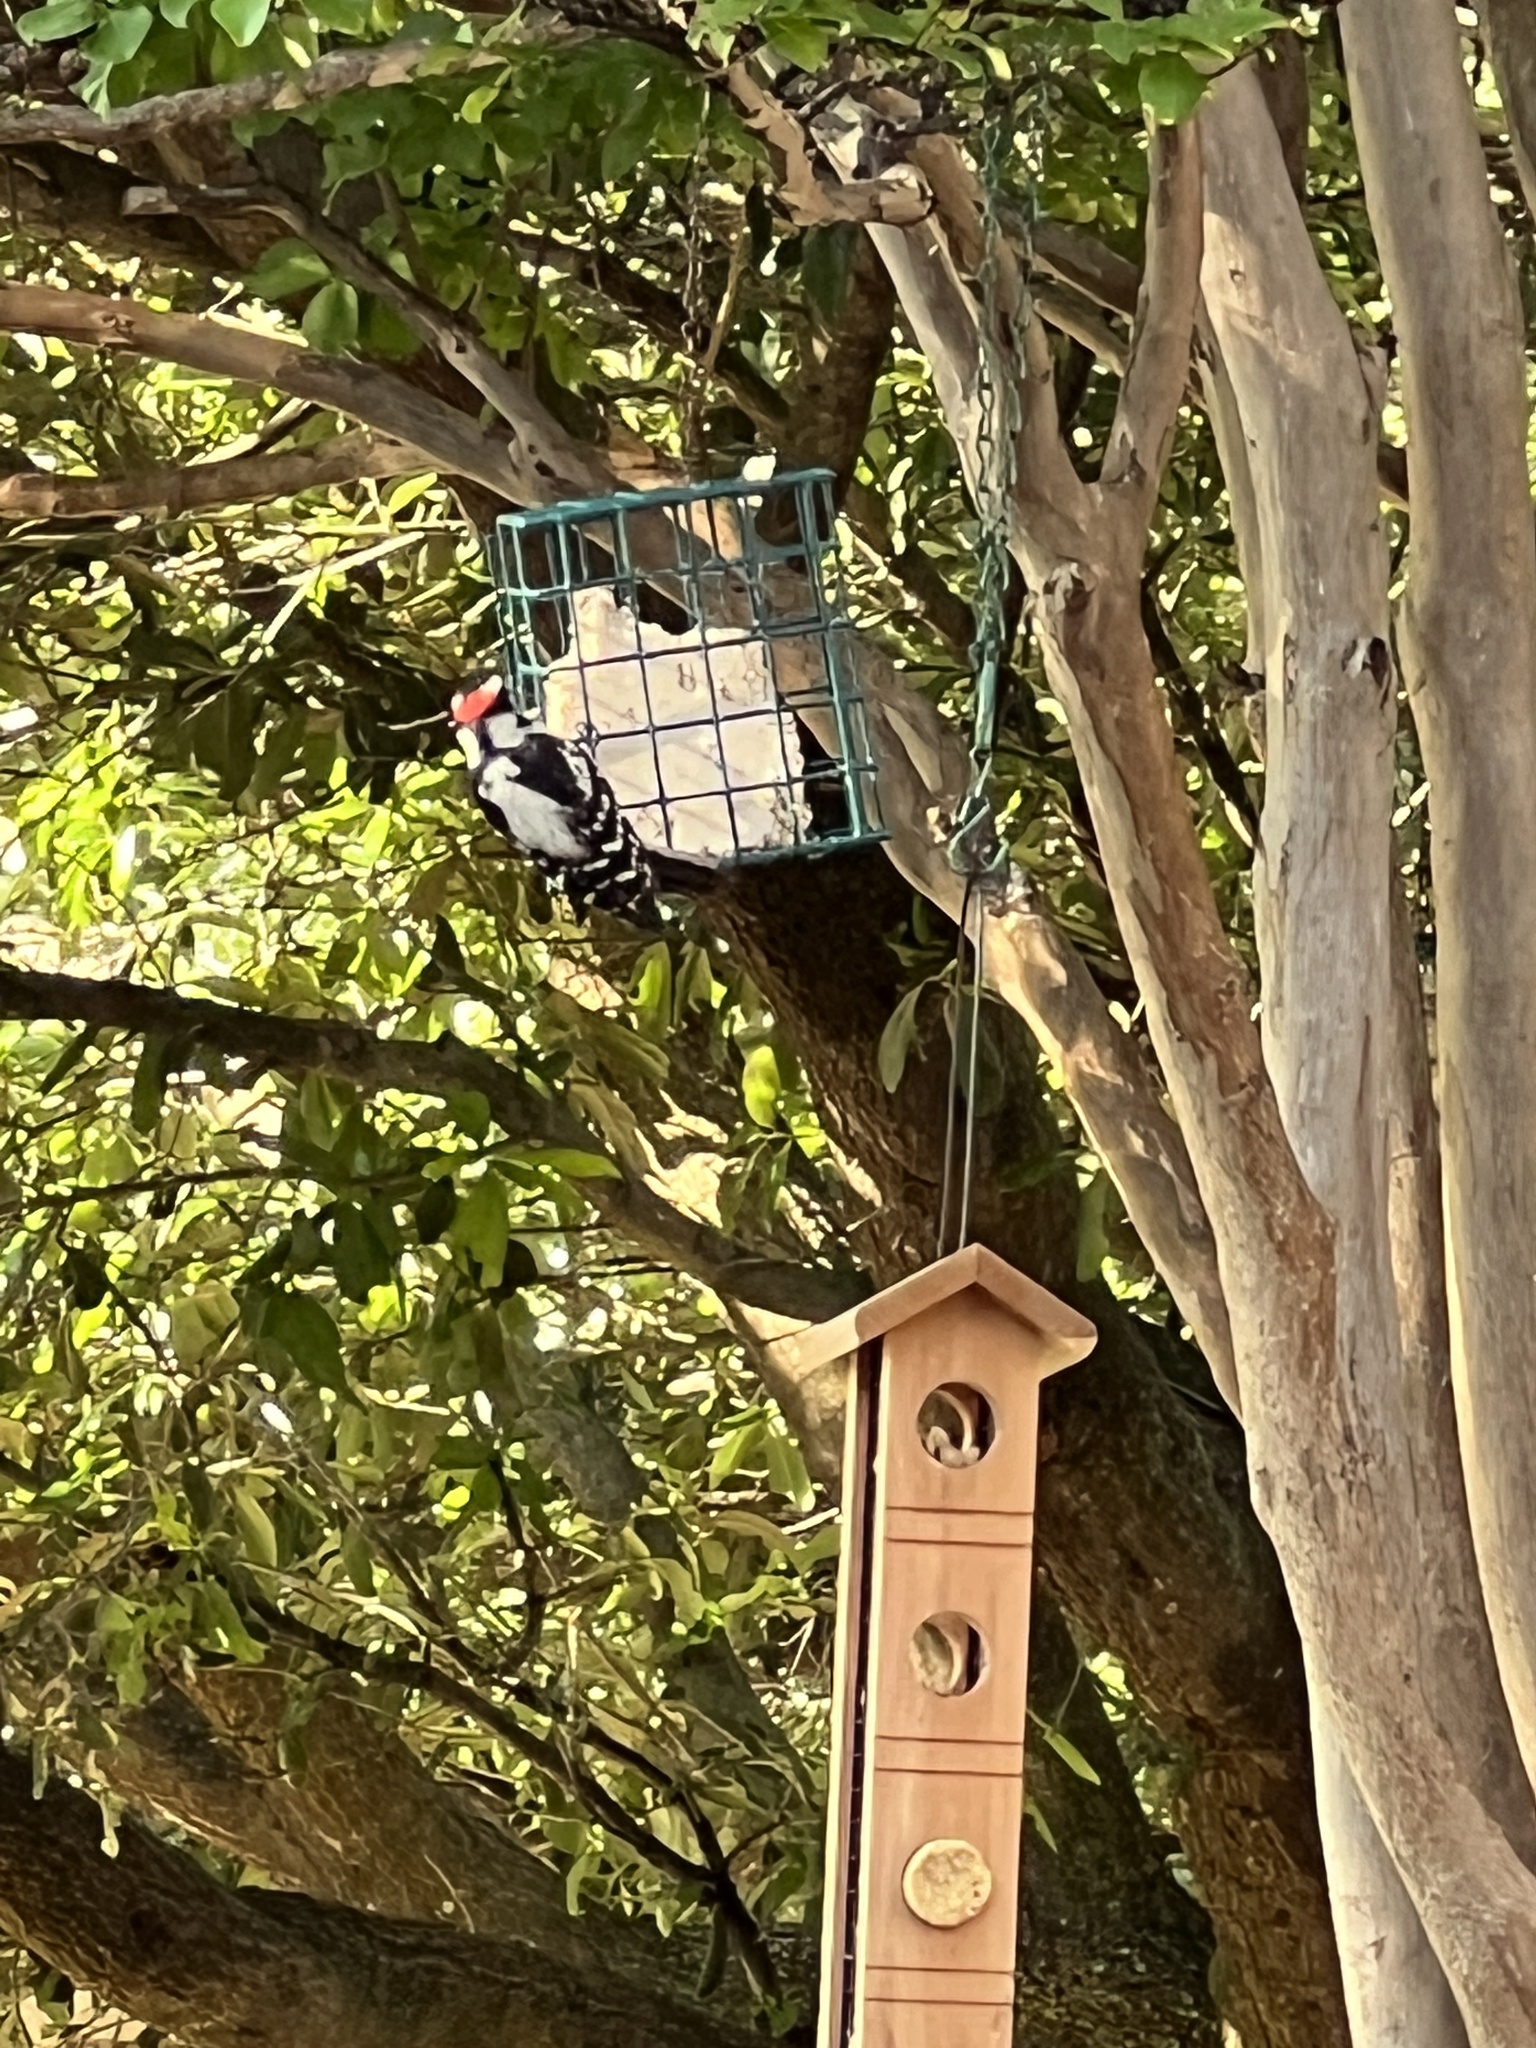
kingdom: Animalia
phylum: Chordata
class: Aves
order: Piciformes
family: Picidae
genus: Dryobates
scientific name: Dryobates pubescens
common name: Downy woodpecker
